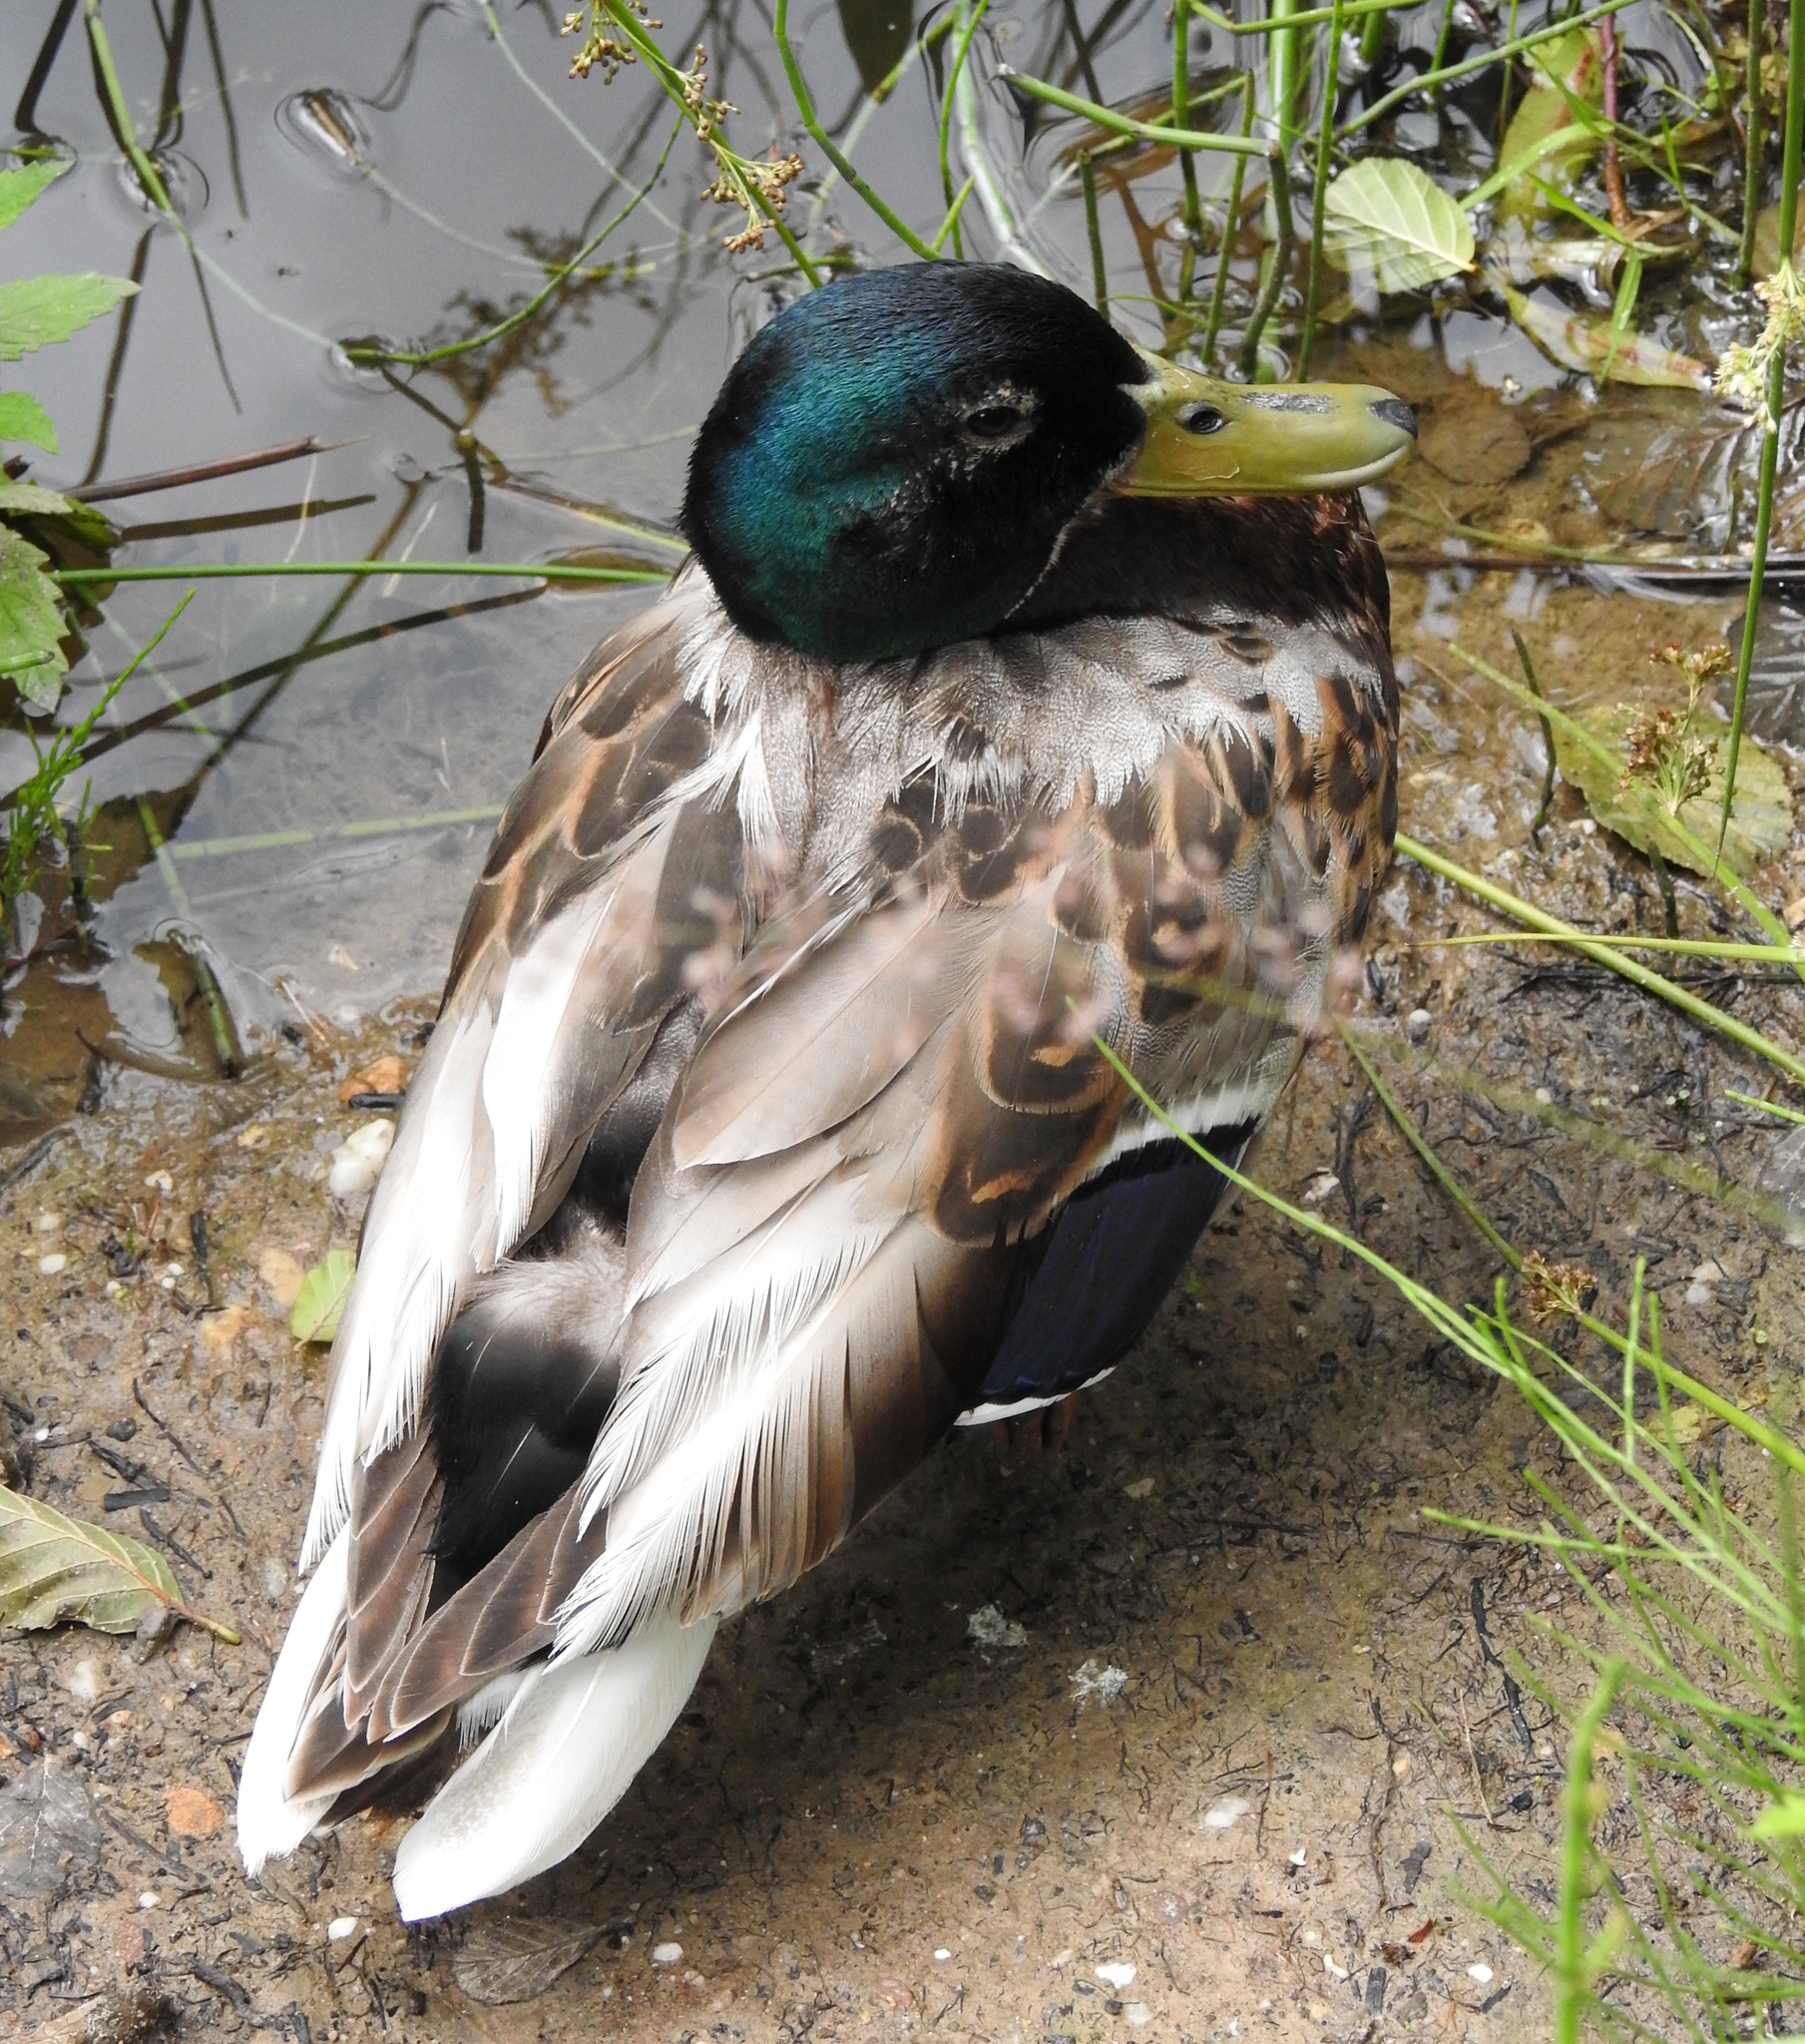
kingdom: Animalia
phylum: Chordata
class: Aves
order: Anseriformes
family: Anatidae
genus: Anas
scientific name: Anas platyrhynchos
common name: Mallard
